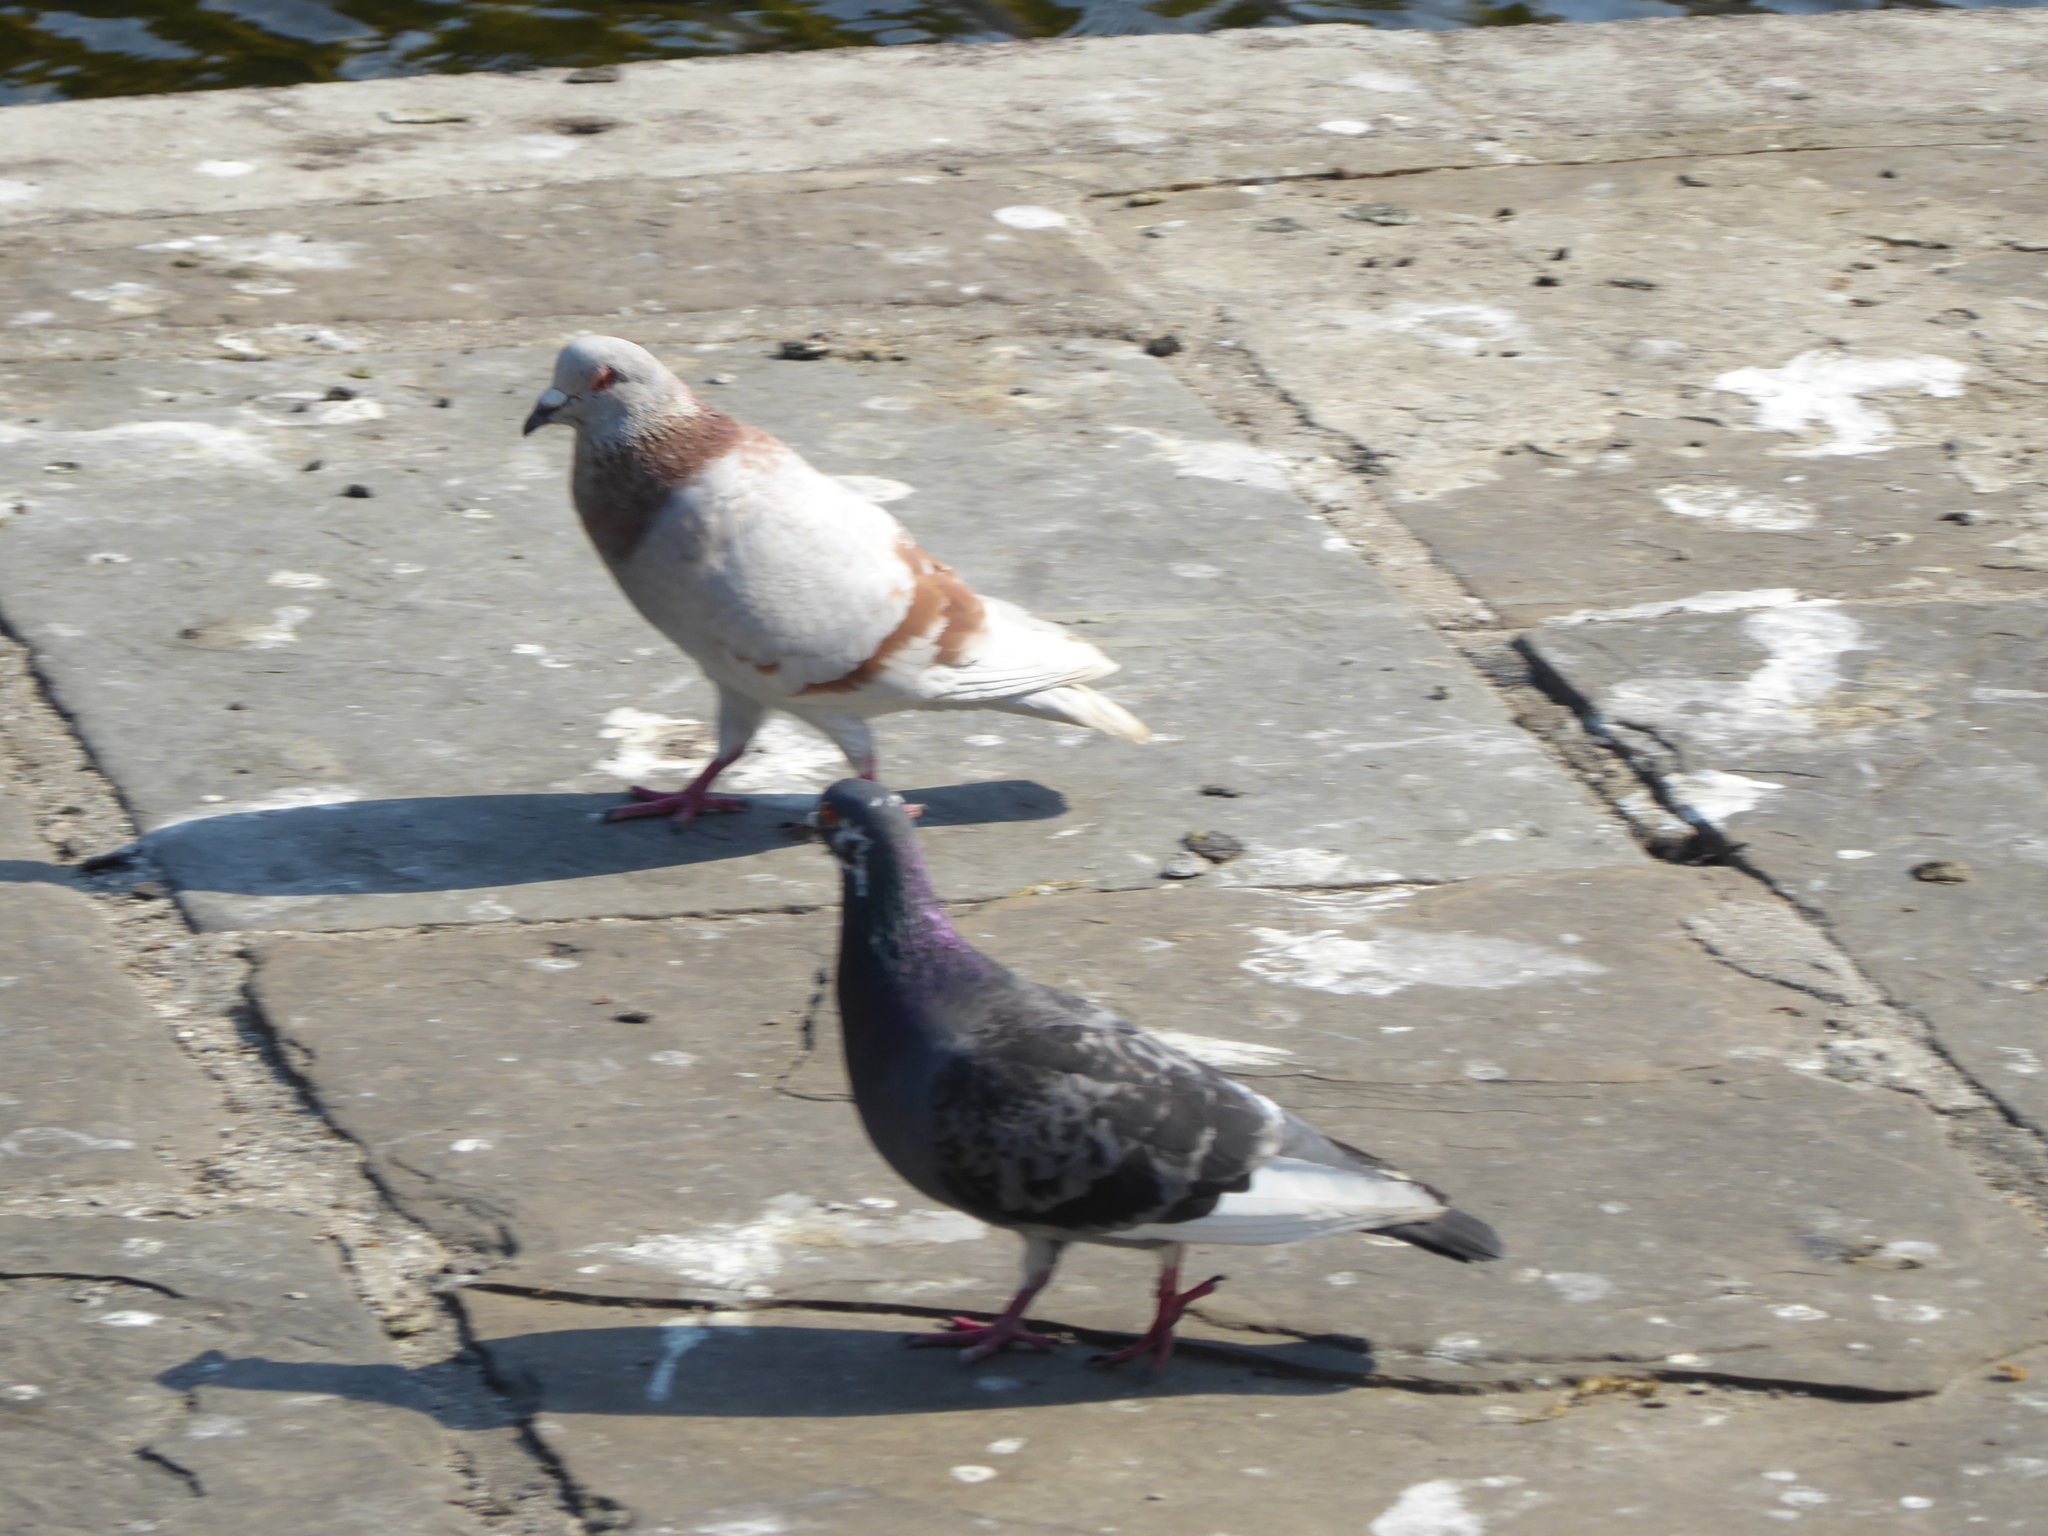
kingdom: Animalia
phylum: Chordata
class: Aves
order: Columbiformes
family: Columbidae
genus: Columba
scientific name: Columba livia
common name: Rock pigeon
